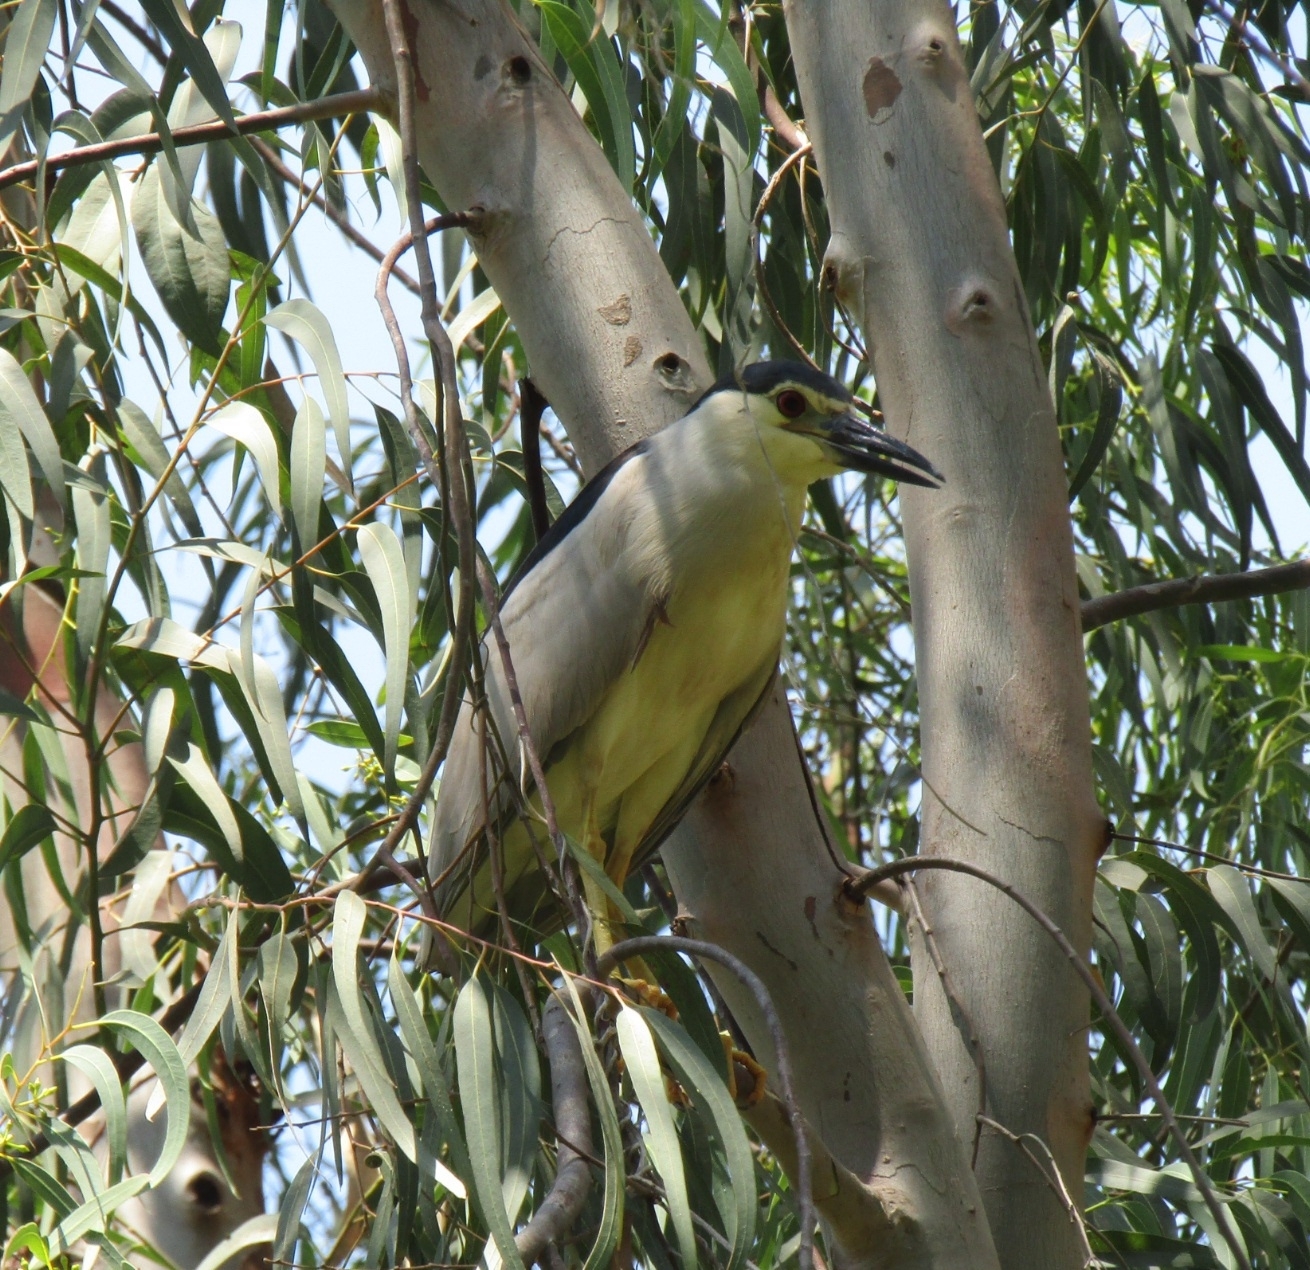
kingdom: Animalia
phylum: Chordata
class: Aves
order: Pelecaniformes
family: Ardeidae
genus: Nycticorax
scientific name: Nycticorax nycticorax
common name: Black-crowned night heron
